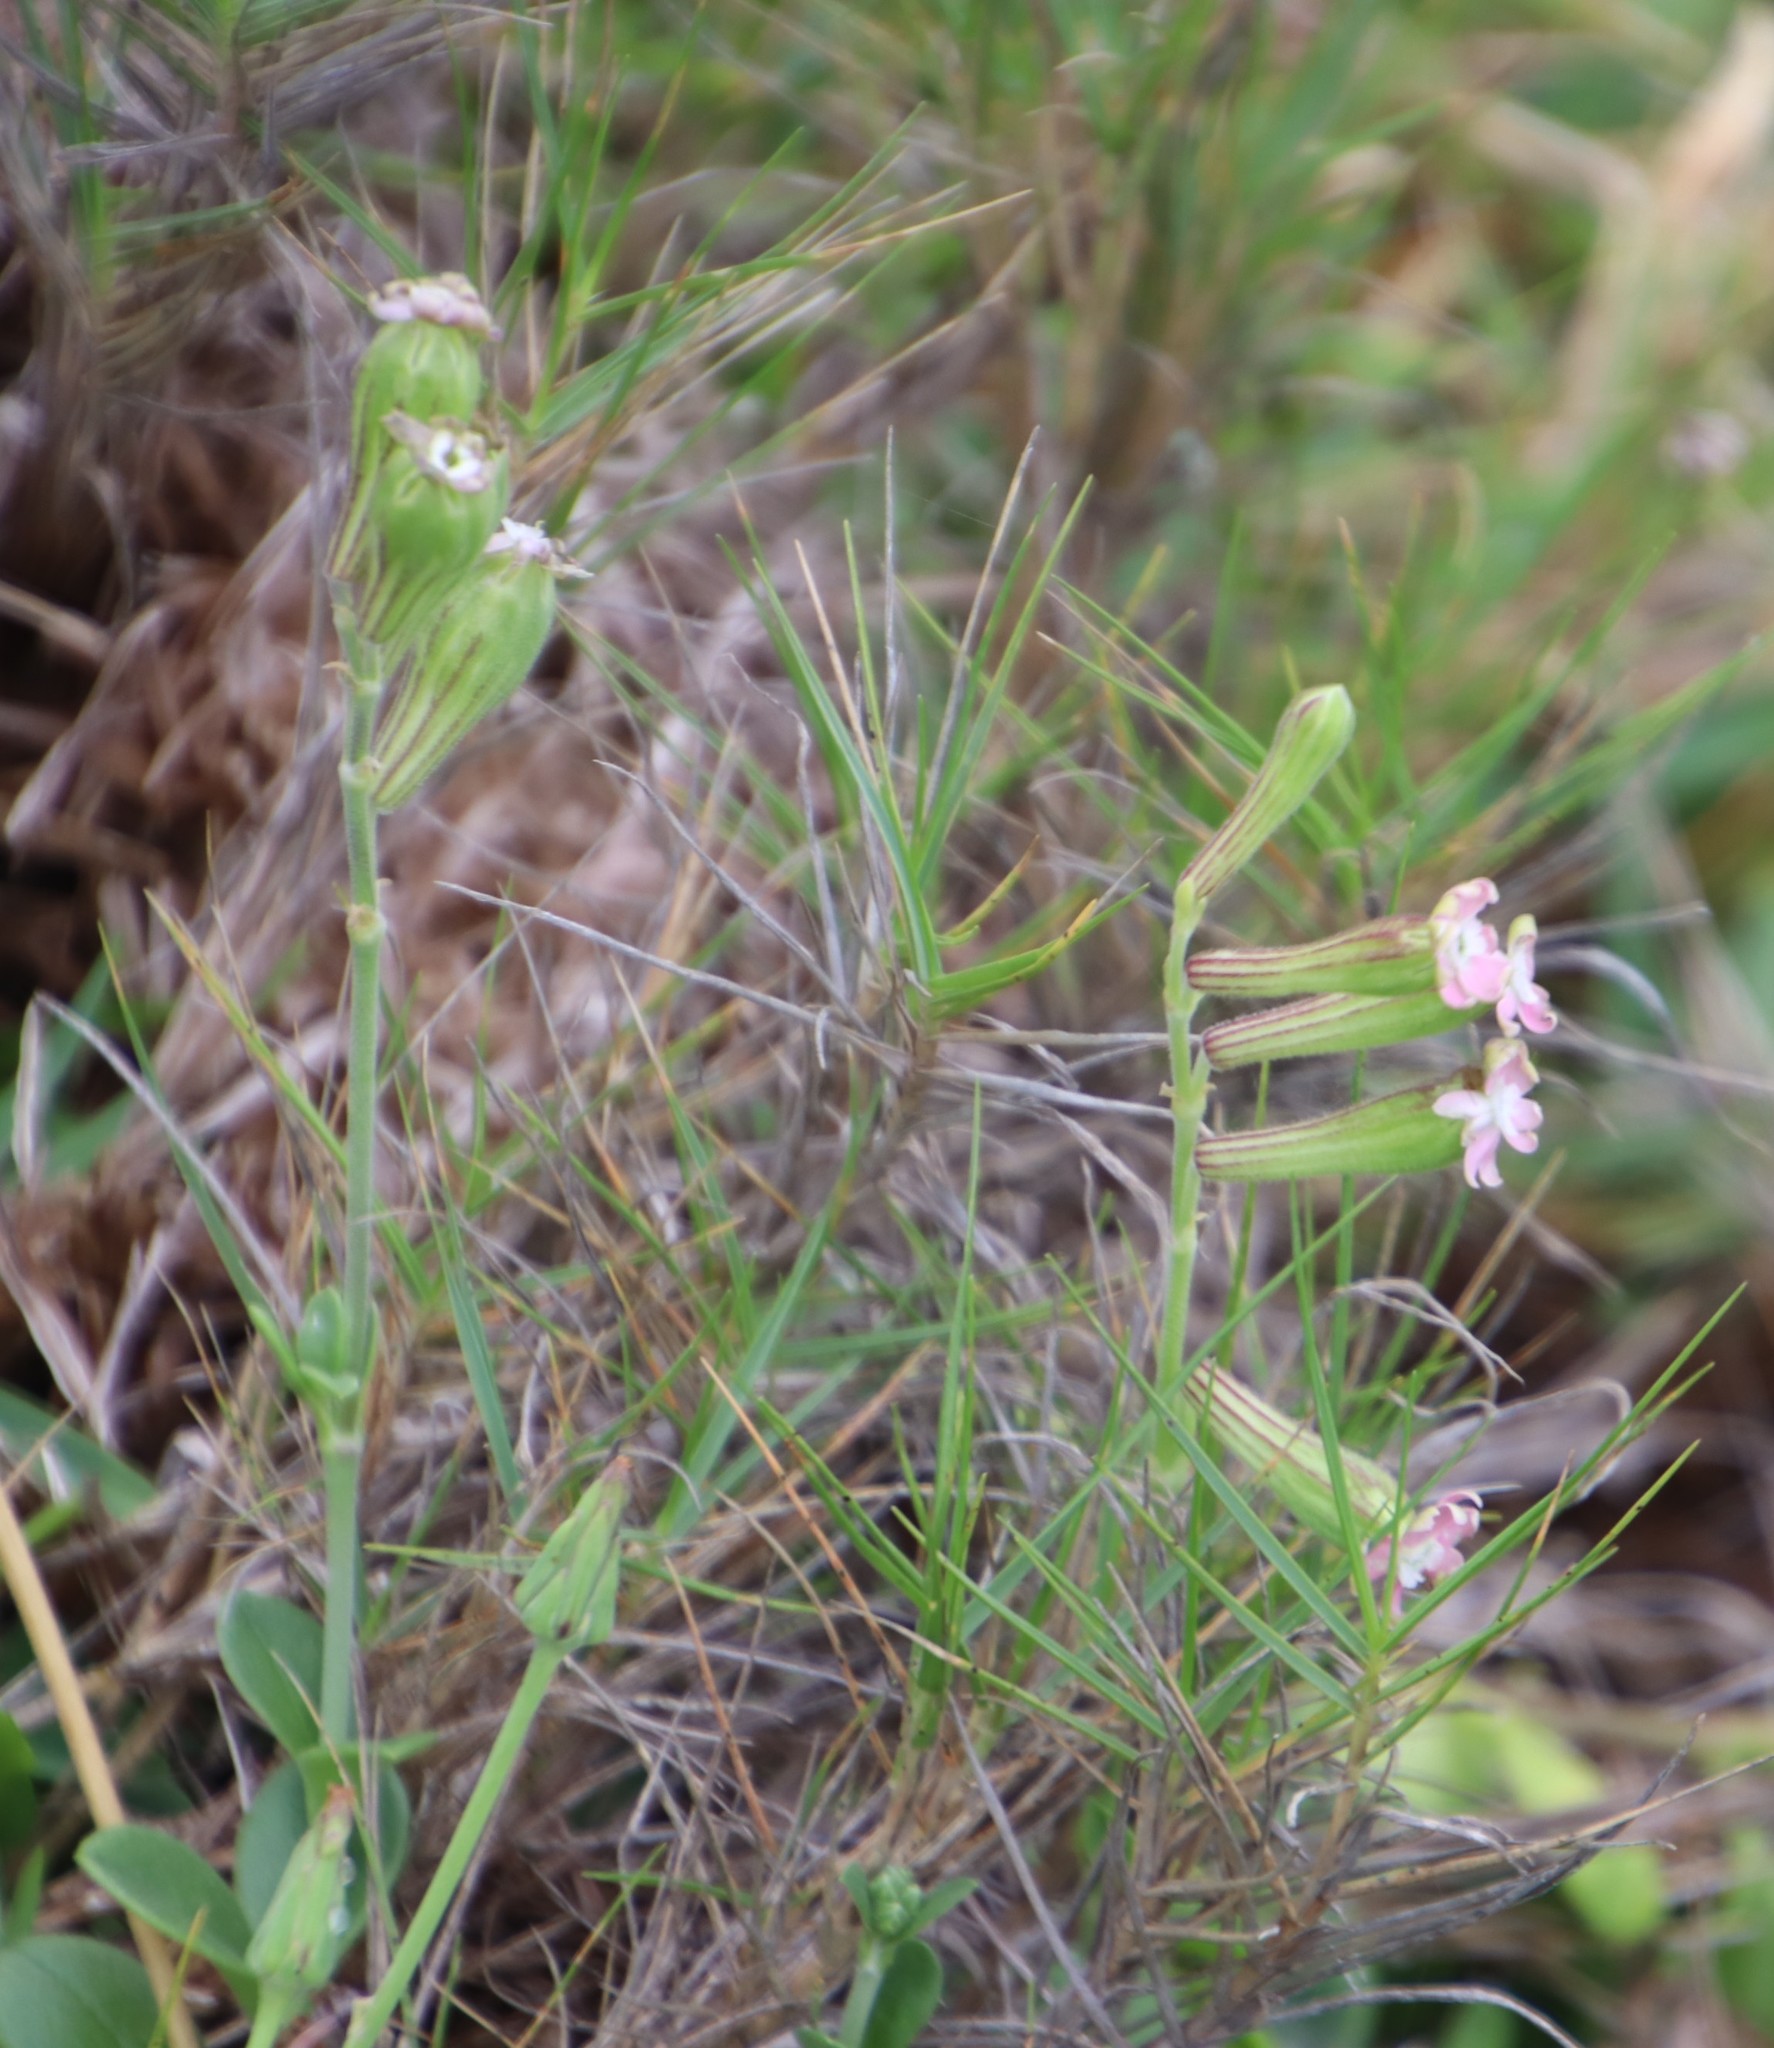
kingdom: Plantae
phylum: Tracheophyta
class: Magnoliopsida
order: Caryophyllales
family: Caryophyllaceae
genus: Silene
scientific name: Silene crassifolia
